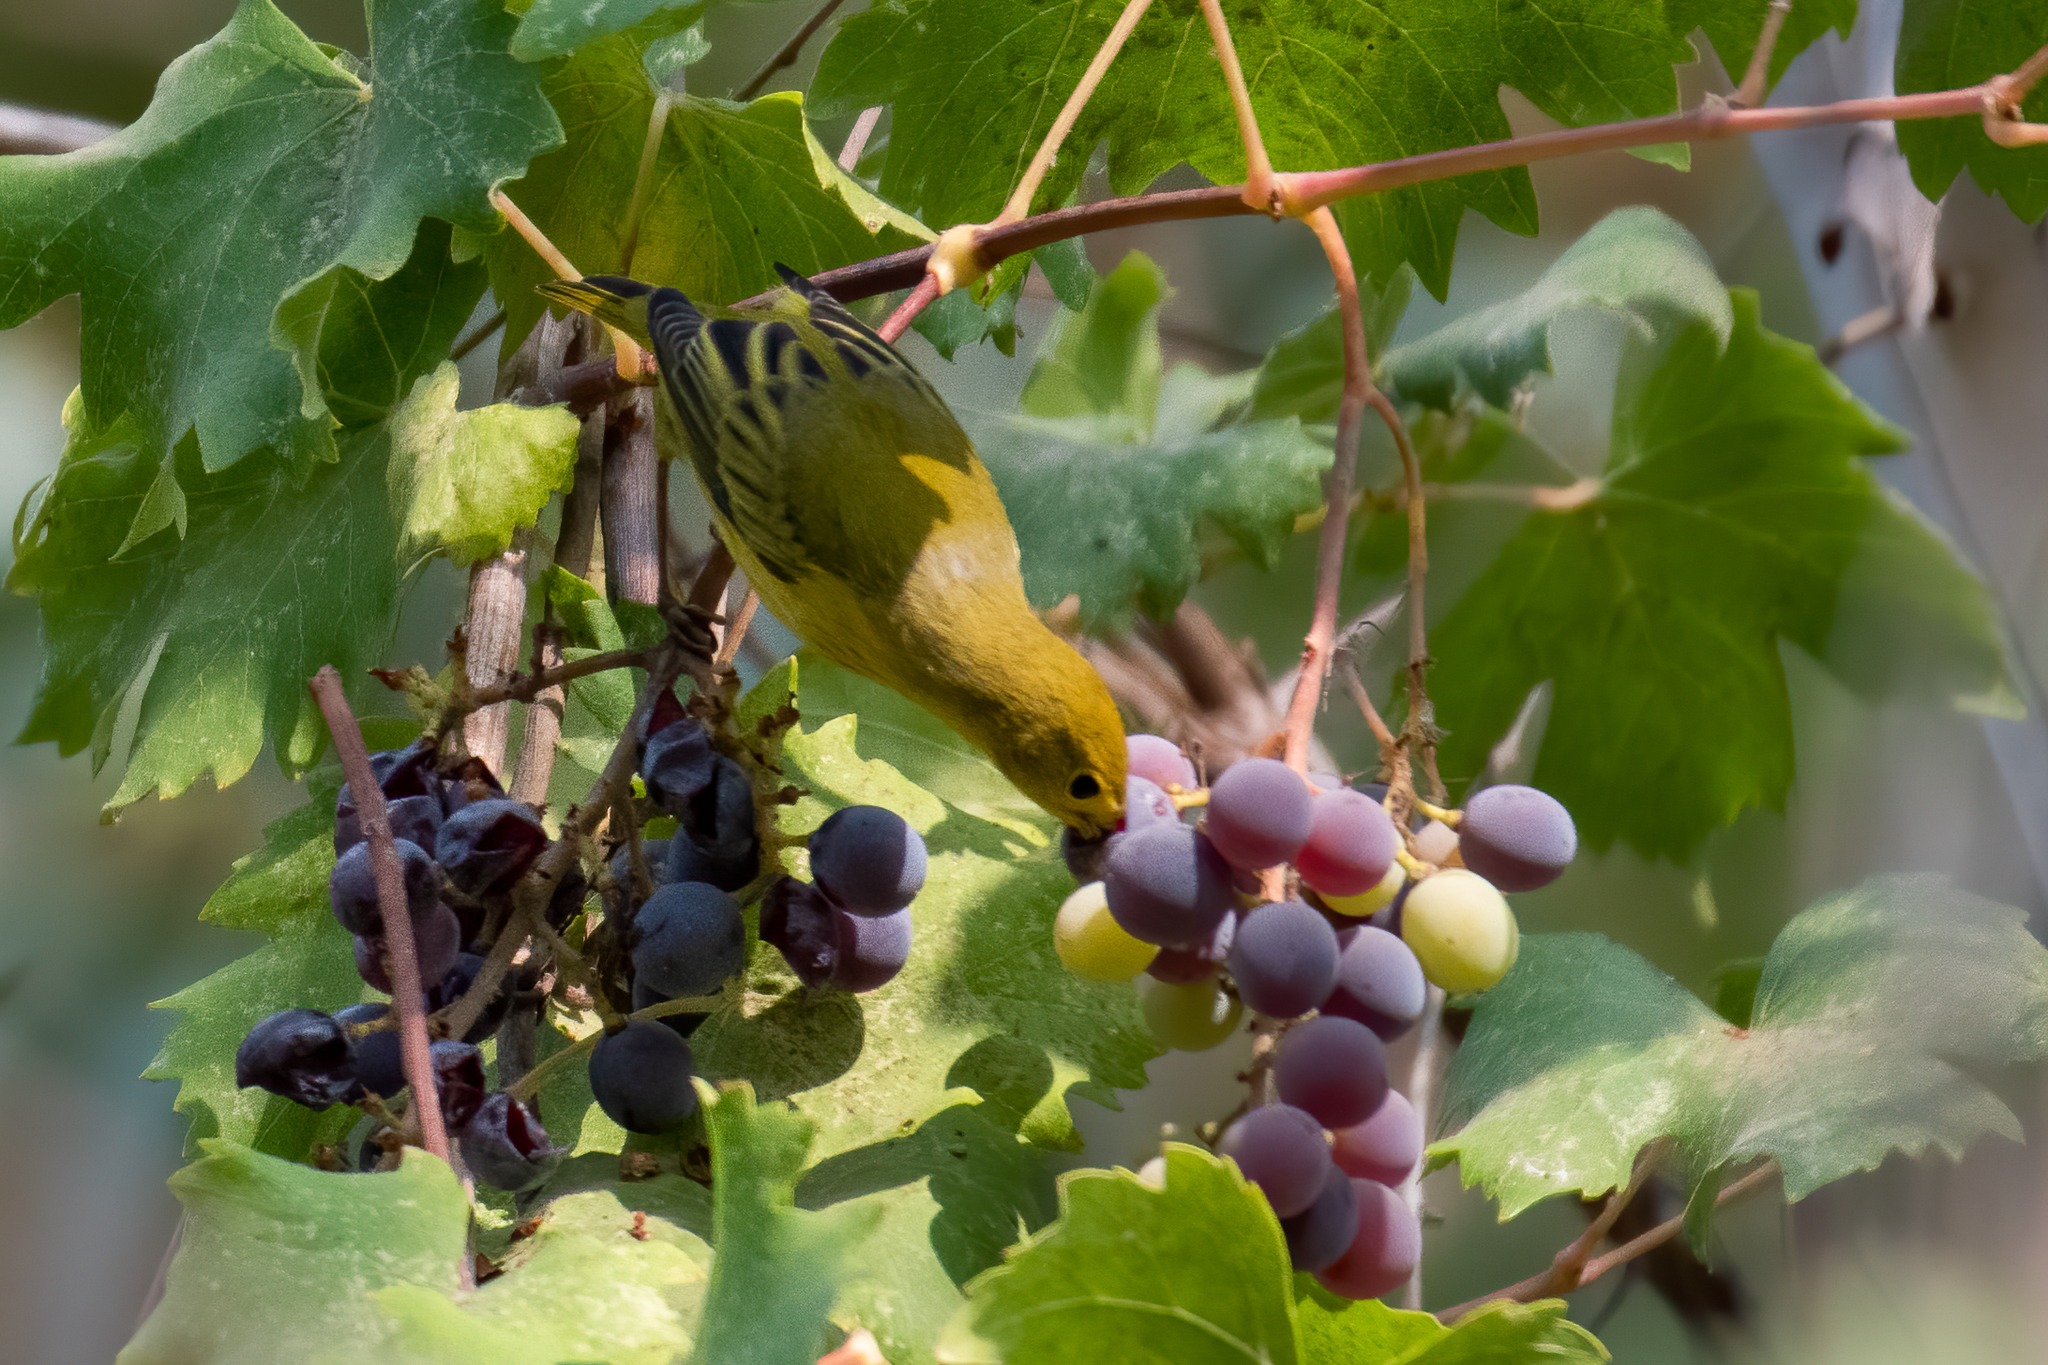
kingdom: Animalia
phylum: Chordata
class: Aves
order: Passeriformes
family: Parulidae
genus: Setophaga
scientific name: Setophaga petechia
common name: Yellow warbler
